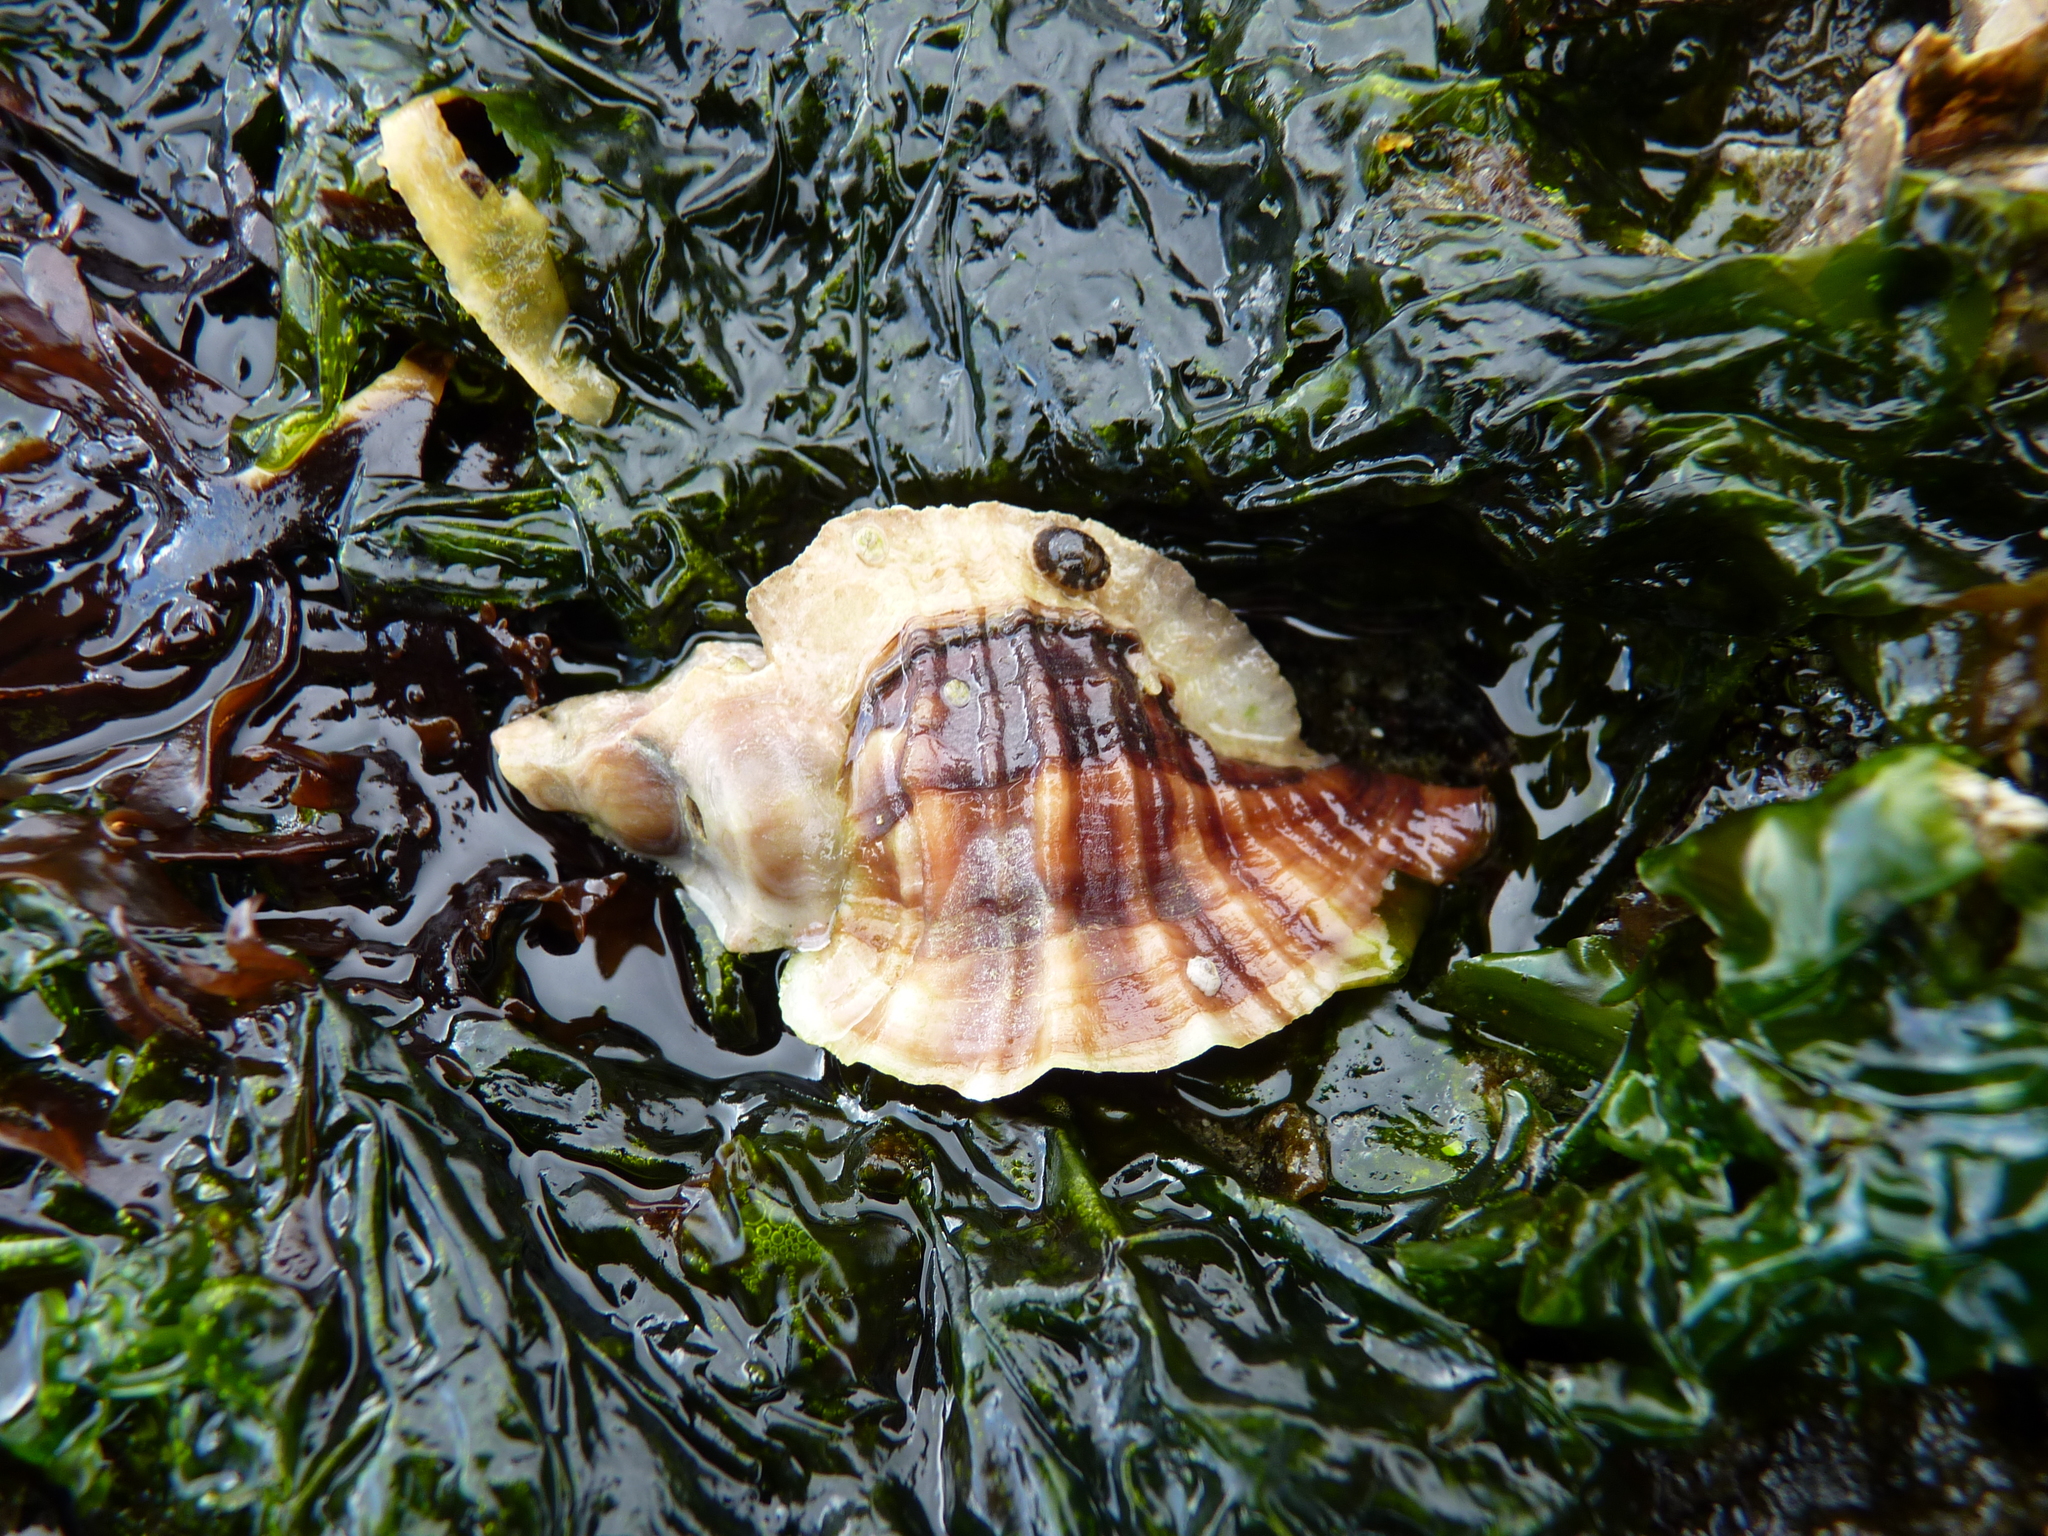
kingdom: Animalia
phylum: Mollusca
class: Gastropoda
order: Neogastropoda
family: Muricidae
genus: Ceratostoma
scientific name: Ceratostoma foliatum
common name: Foliate thorn purpura
